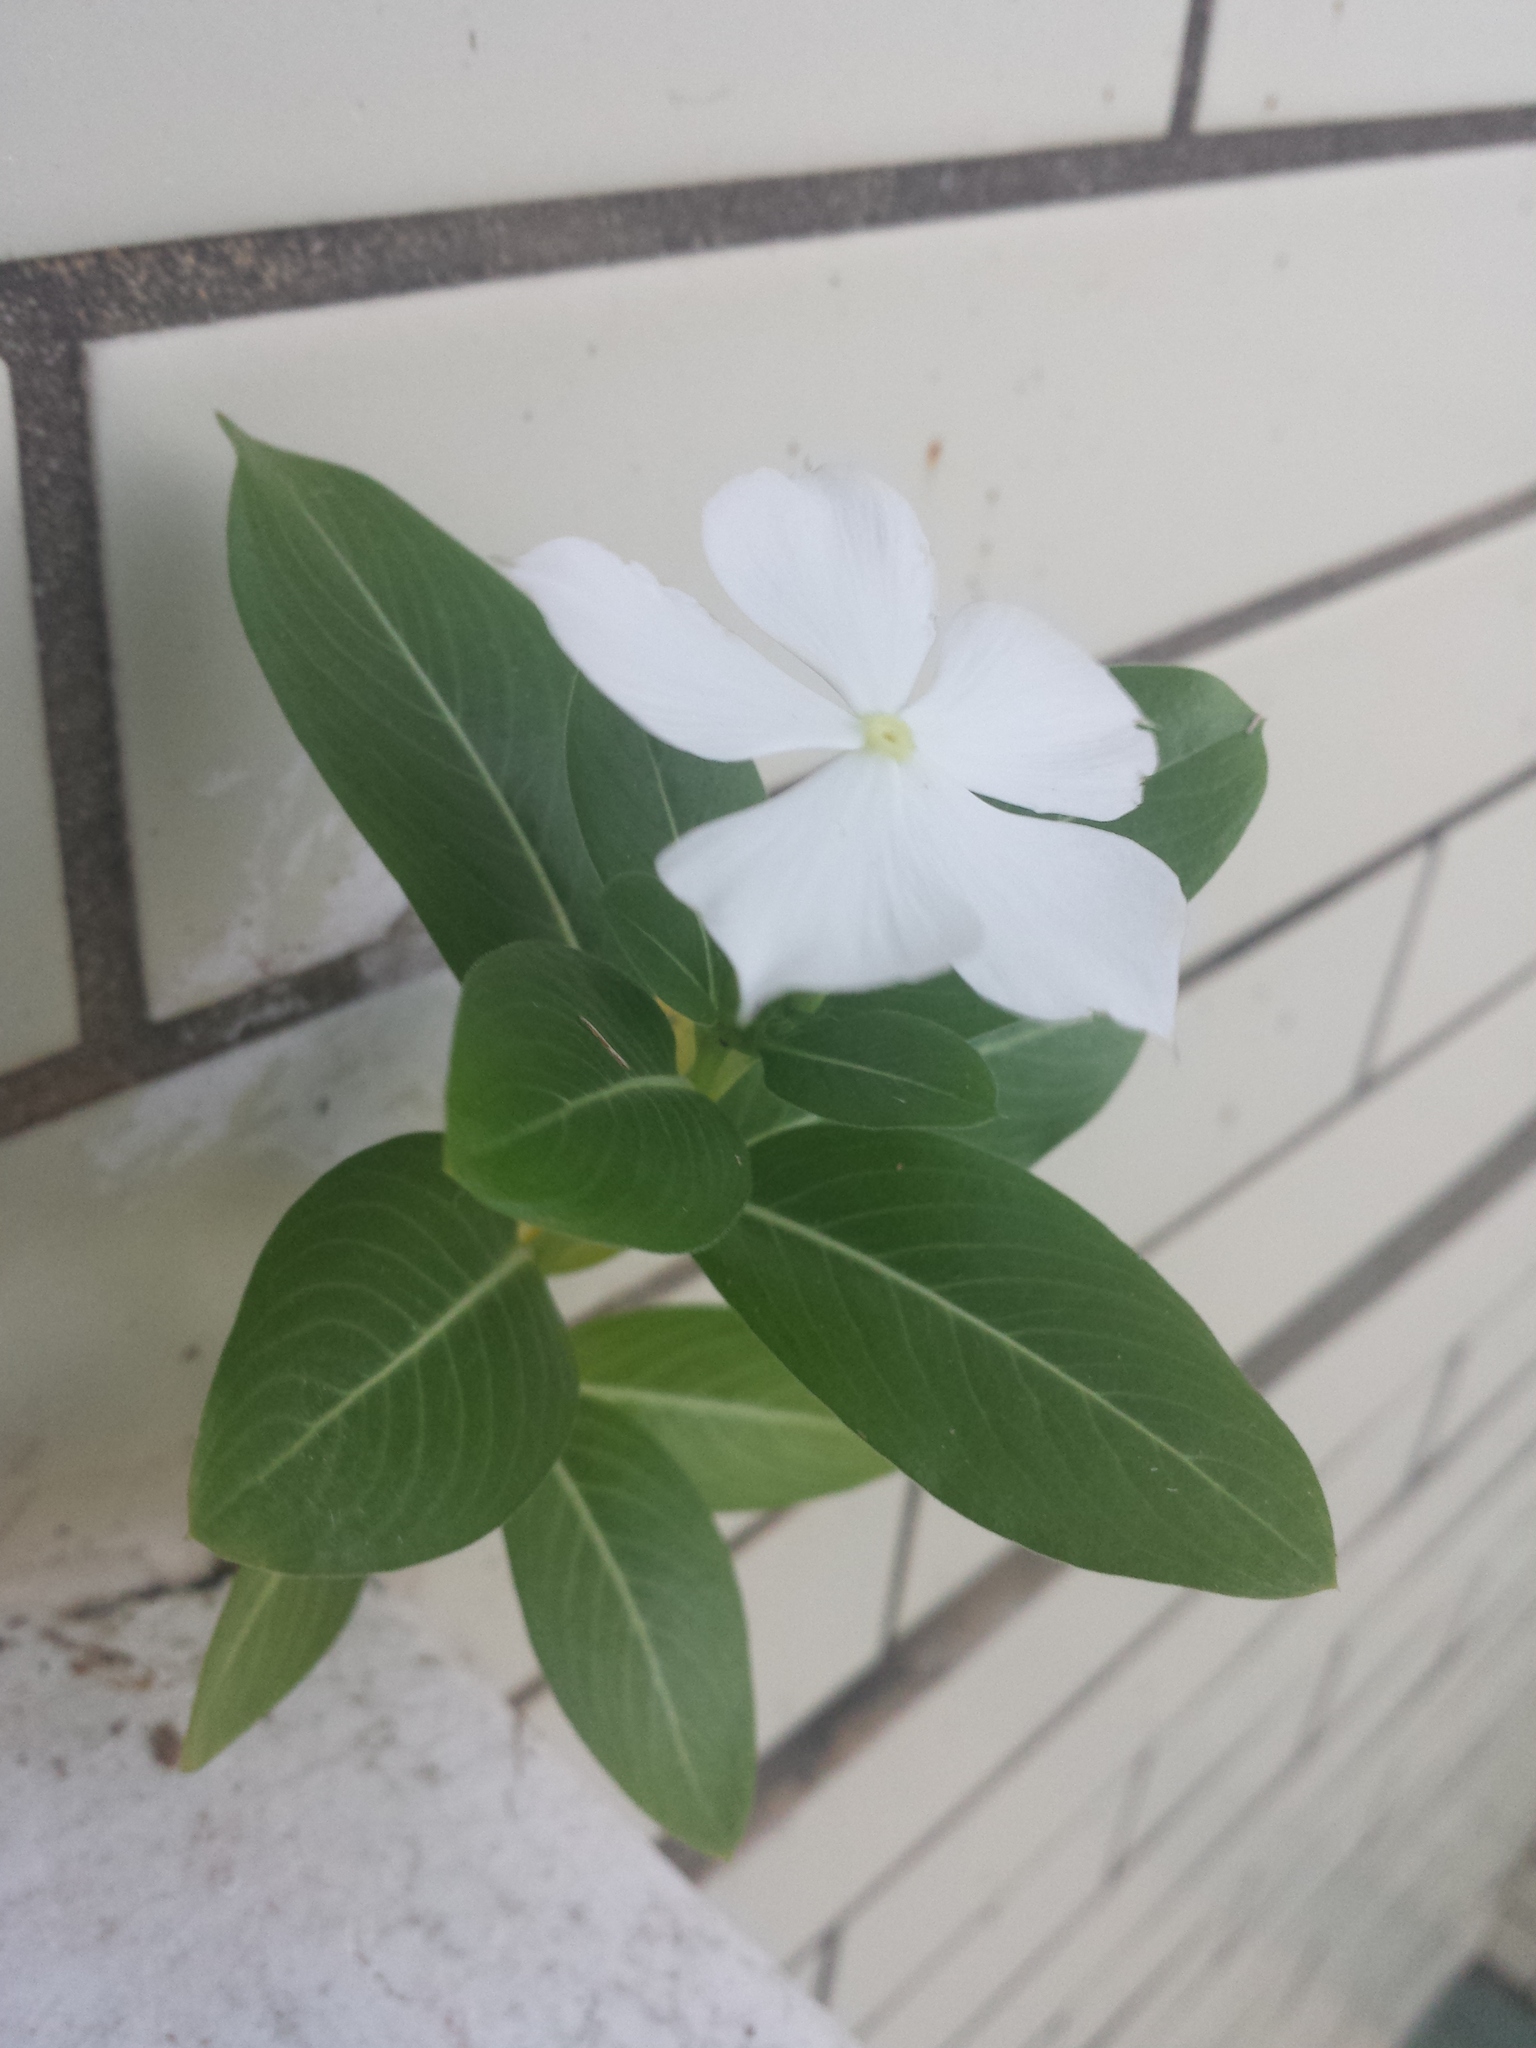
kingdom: Plantae
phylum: Tracheophyta
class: Magnoliopsida
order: Gentianales
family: Apocynaceae
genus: Catharanthus
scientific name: Catharanthus roseus
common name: Madagascar periwinkle
